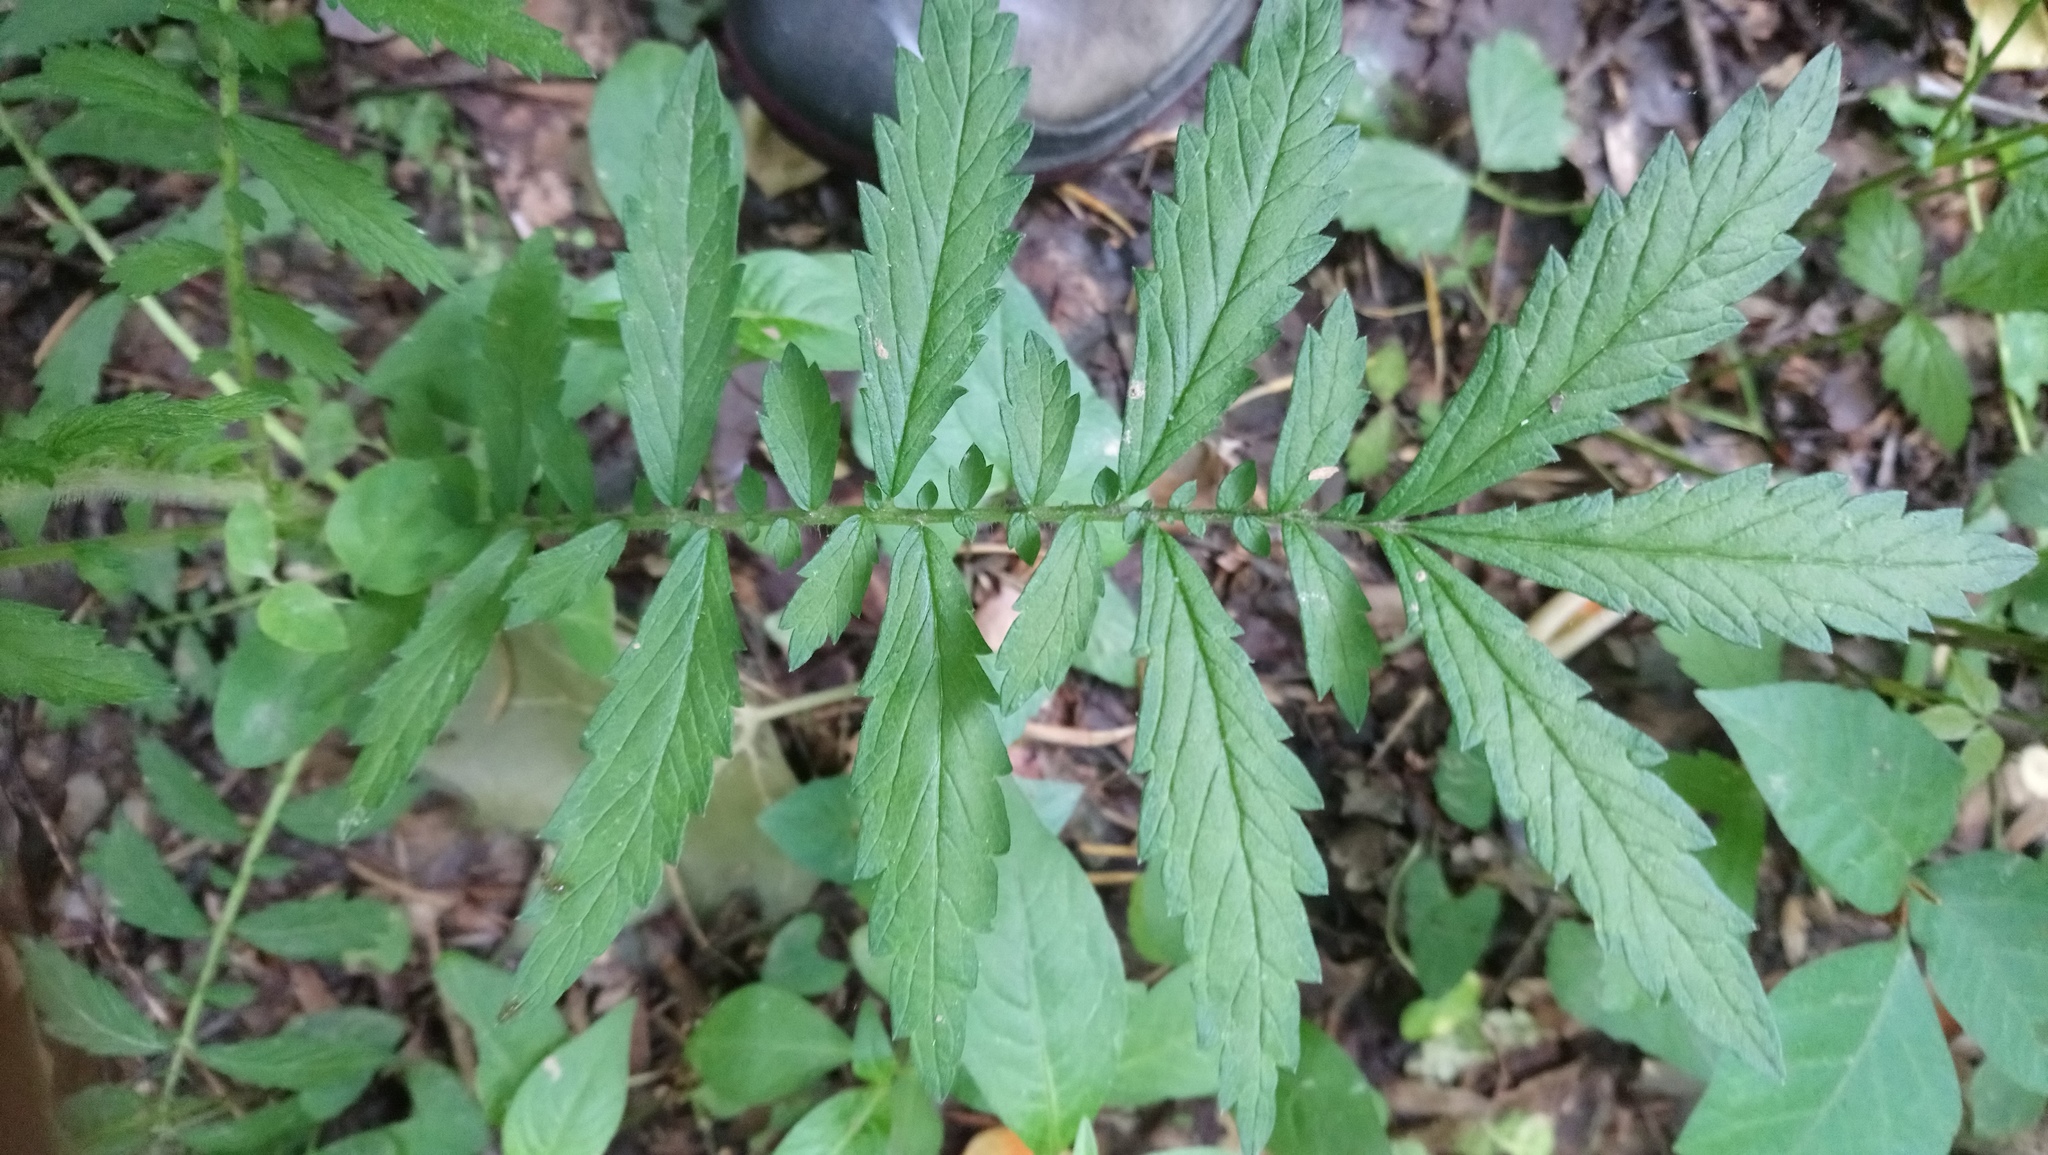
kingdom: Plantae
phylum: Tracheophyta
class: Magnoliopsida
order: Rosales
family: Rosaceae
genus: Agrimonia
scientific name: Agrimonia parviflora
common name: Harvest-lice
